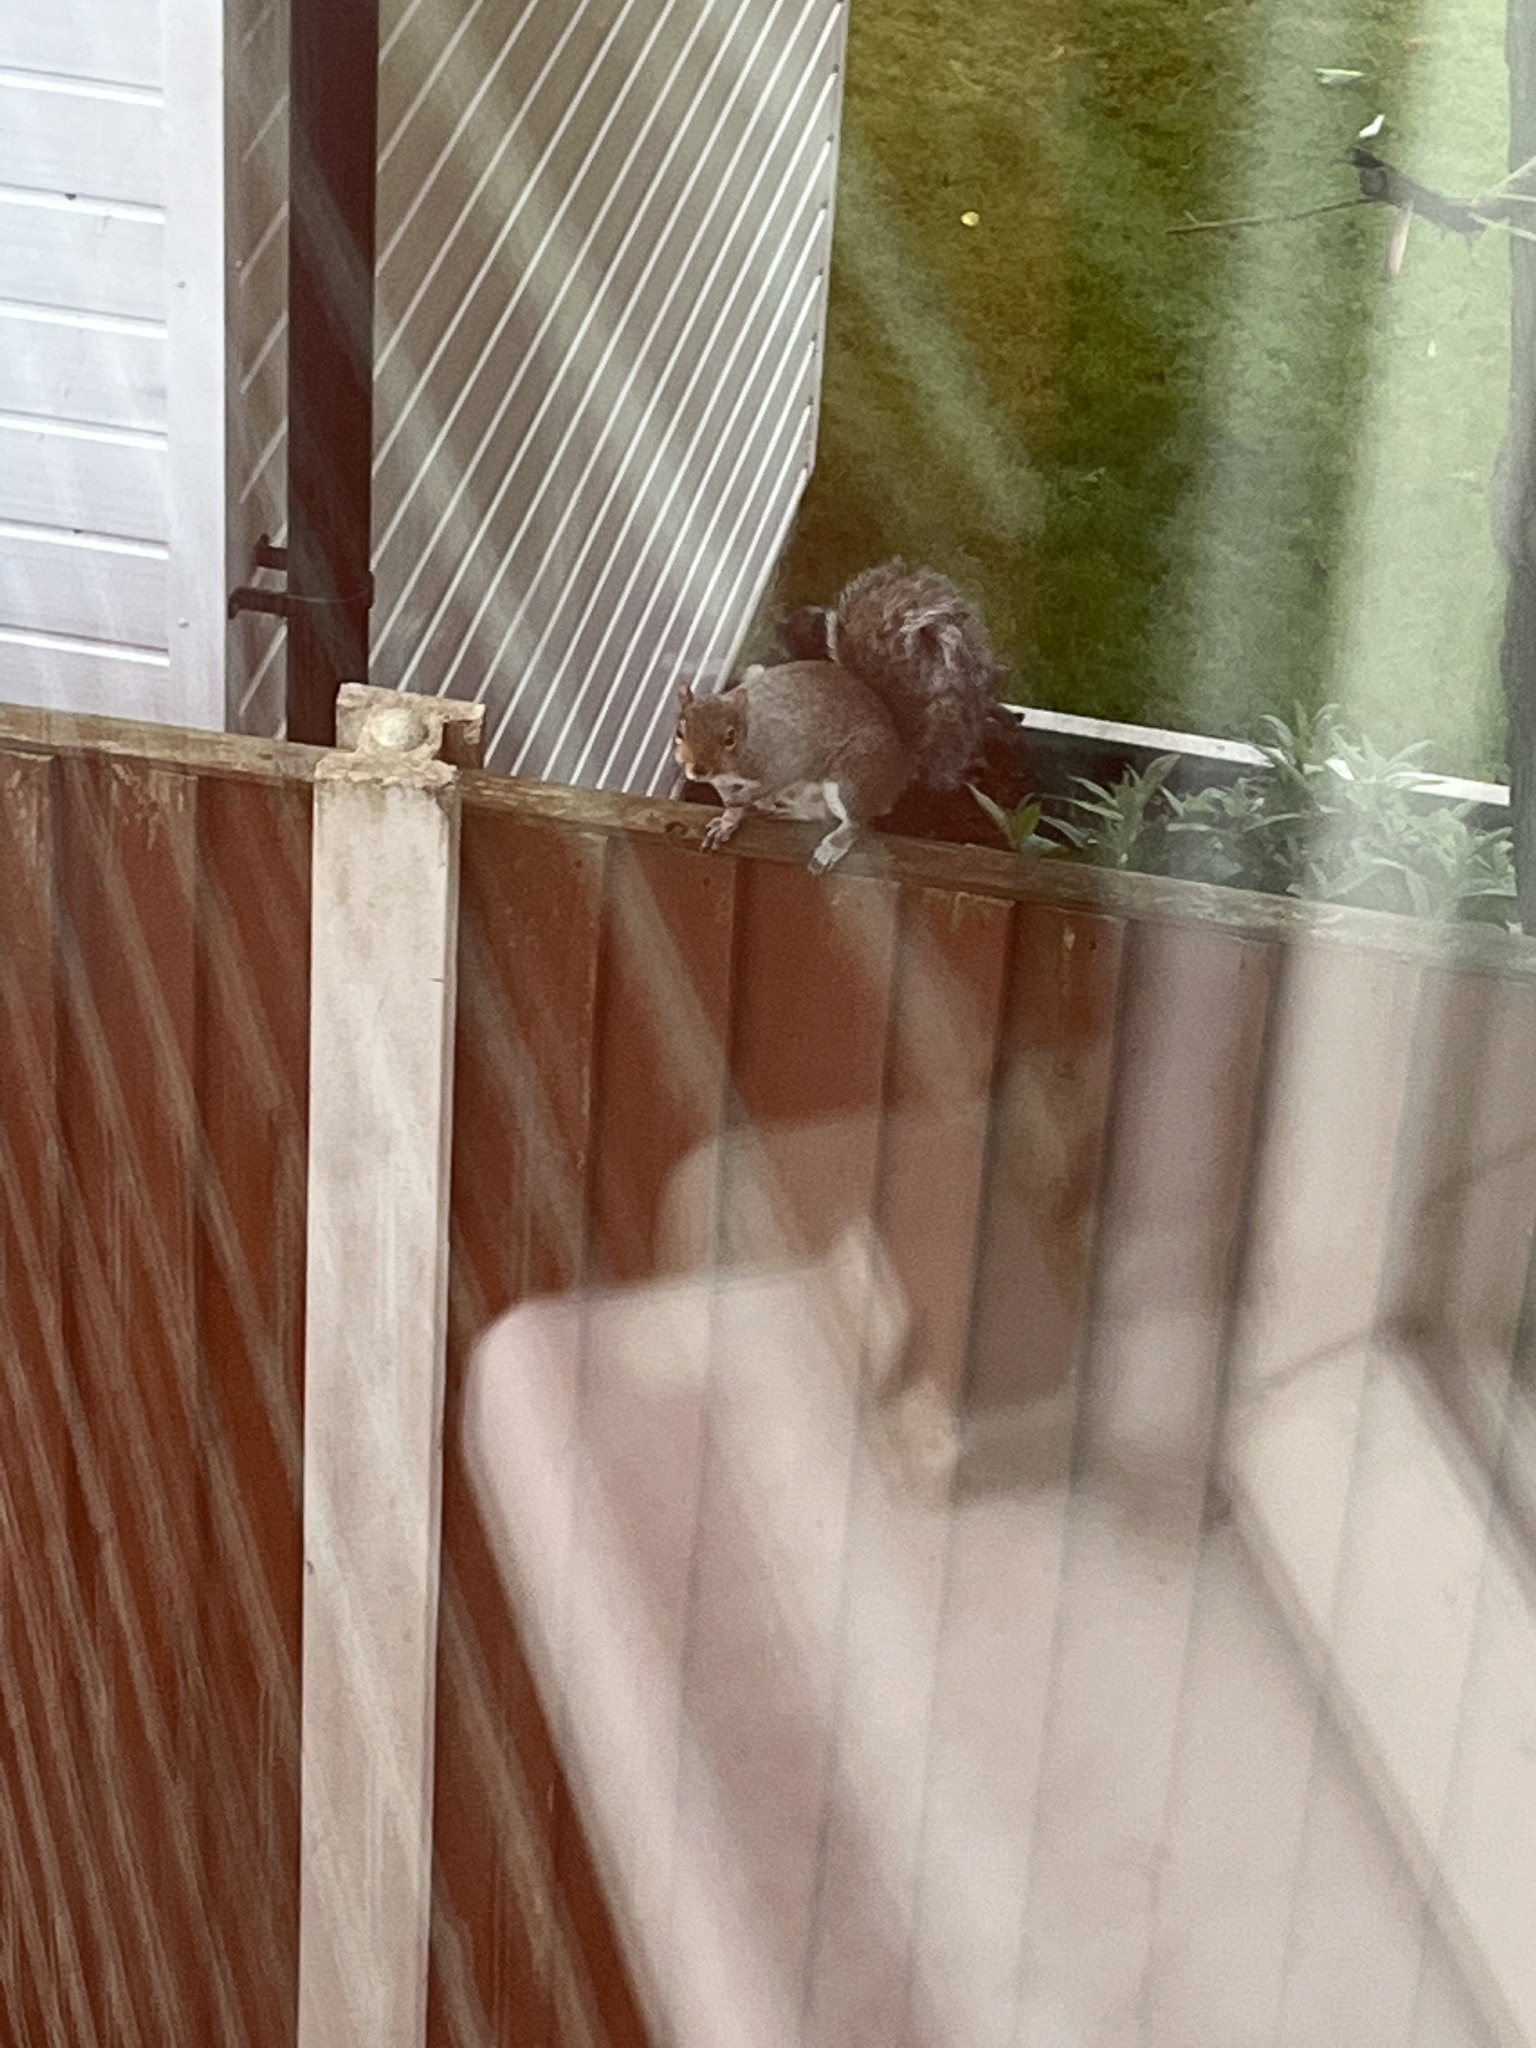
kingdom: Animalia
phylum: Chordata
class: Mammalia
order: Rodentia
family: Sciuridae
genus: Sciurus
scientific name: Sciurus carolinensis
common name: Eastern gray squirrel
